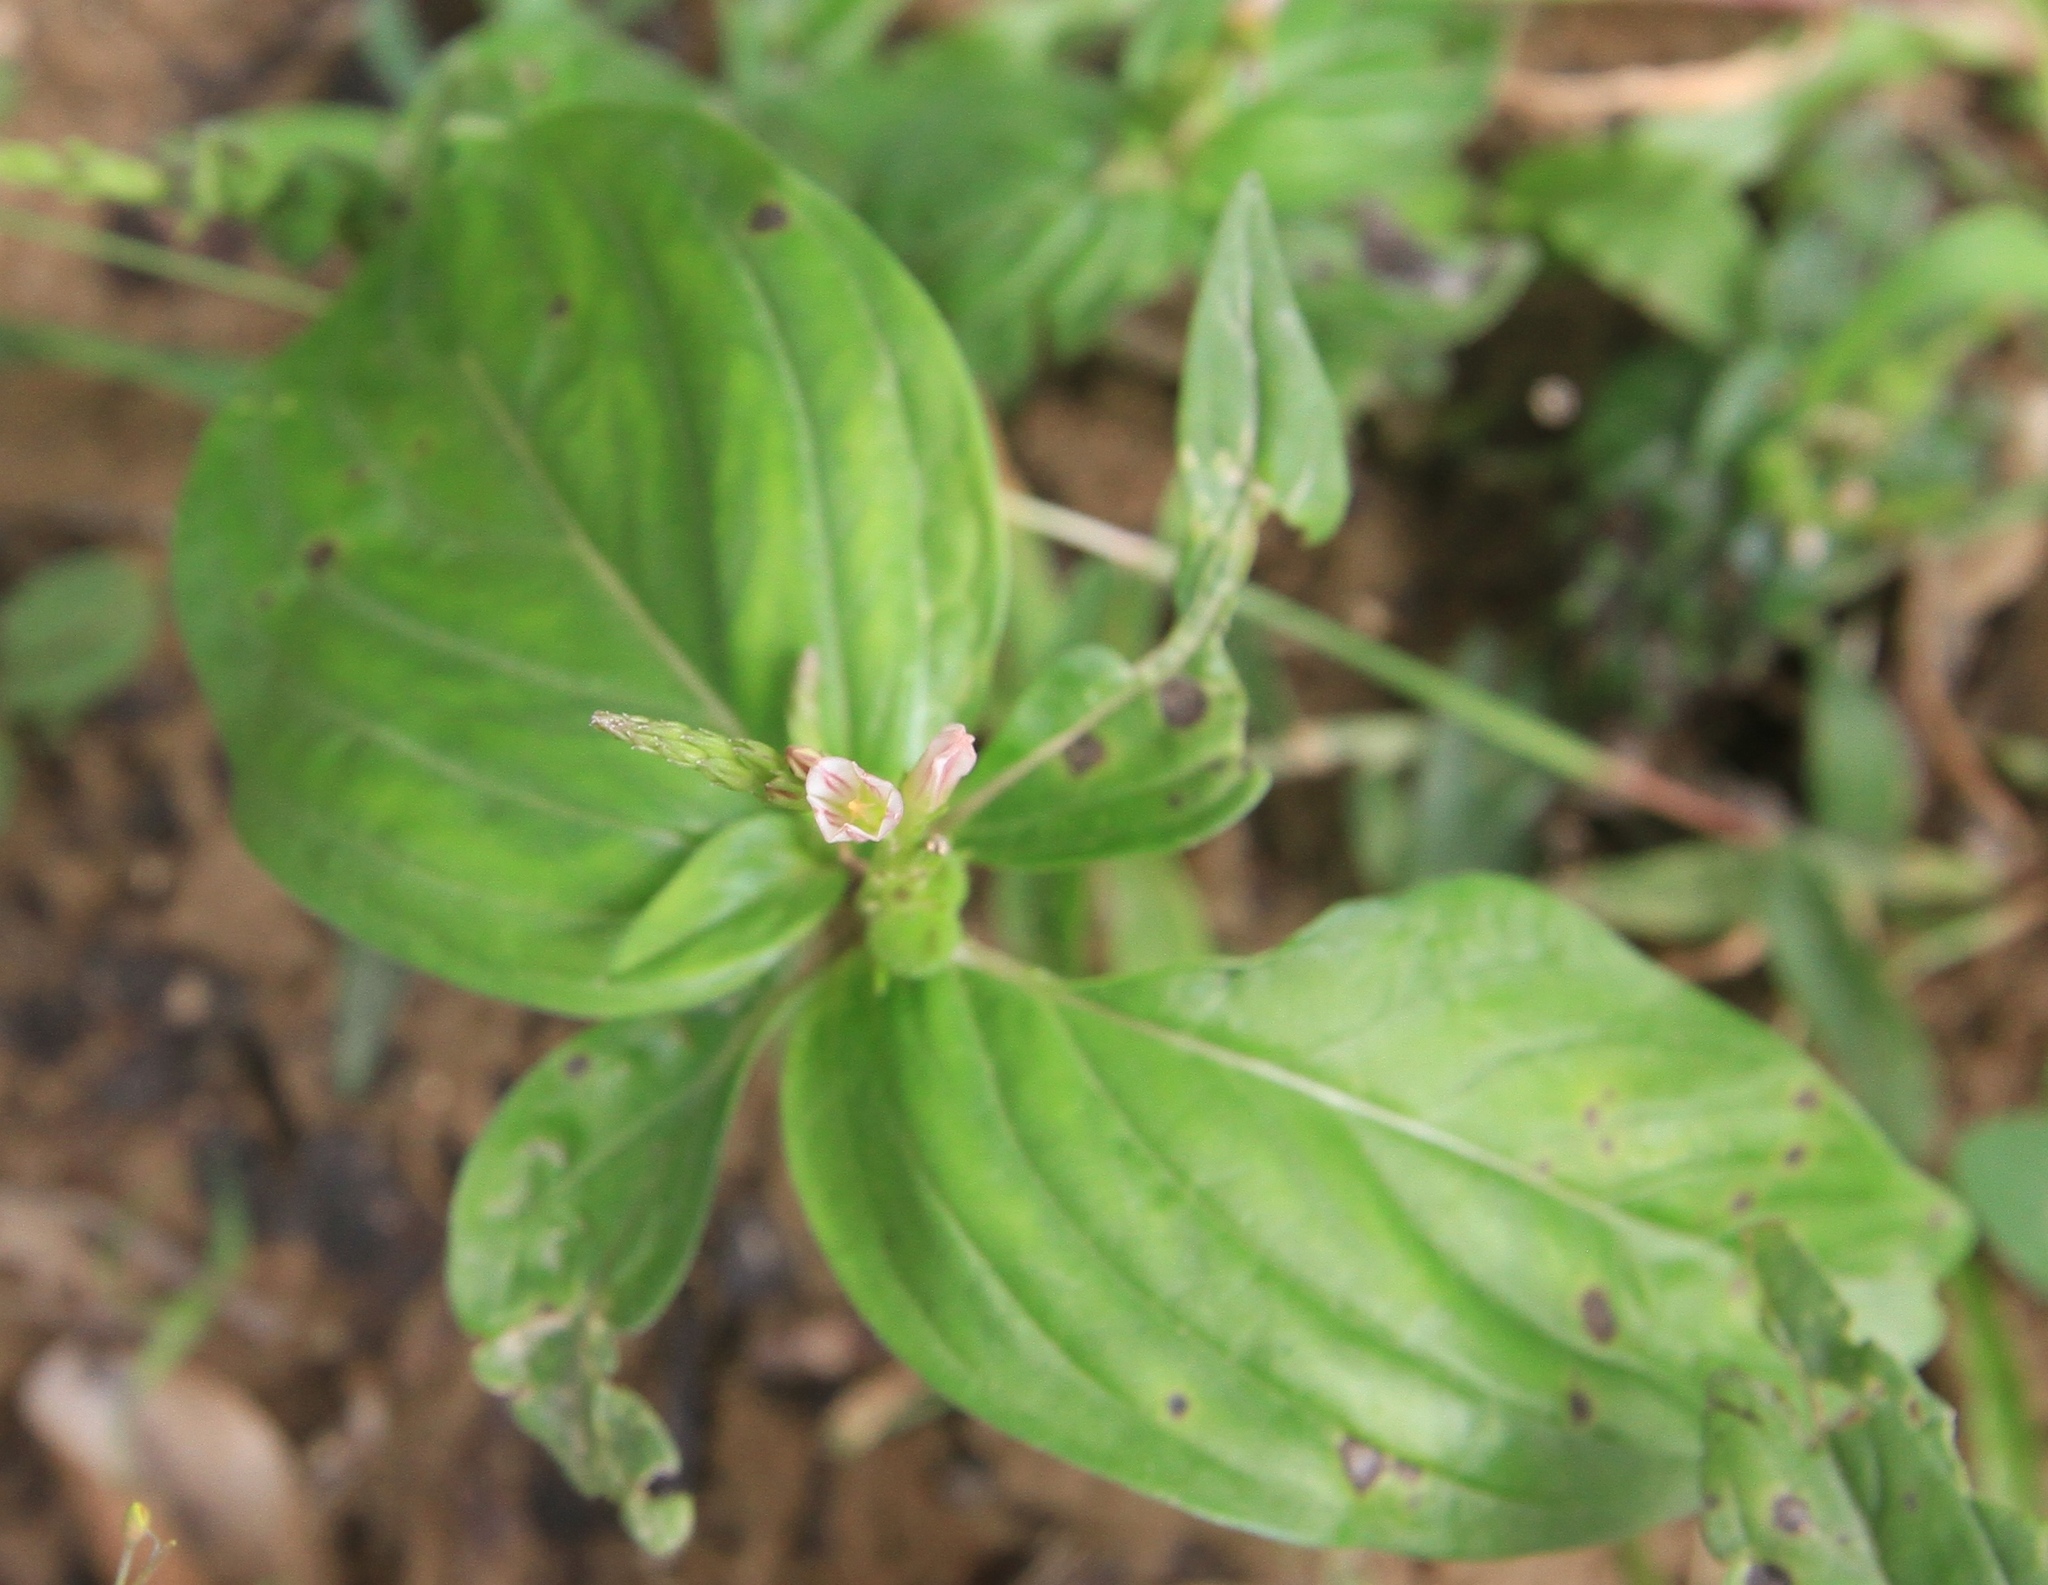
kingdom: Plantae
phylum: Tracheophyta
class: Magnoliopsida
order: Gentianales
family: Loganiaceae
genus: Spigelia
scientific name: Spigelia anthelmia
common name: West indian-pink
